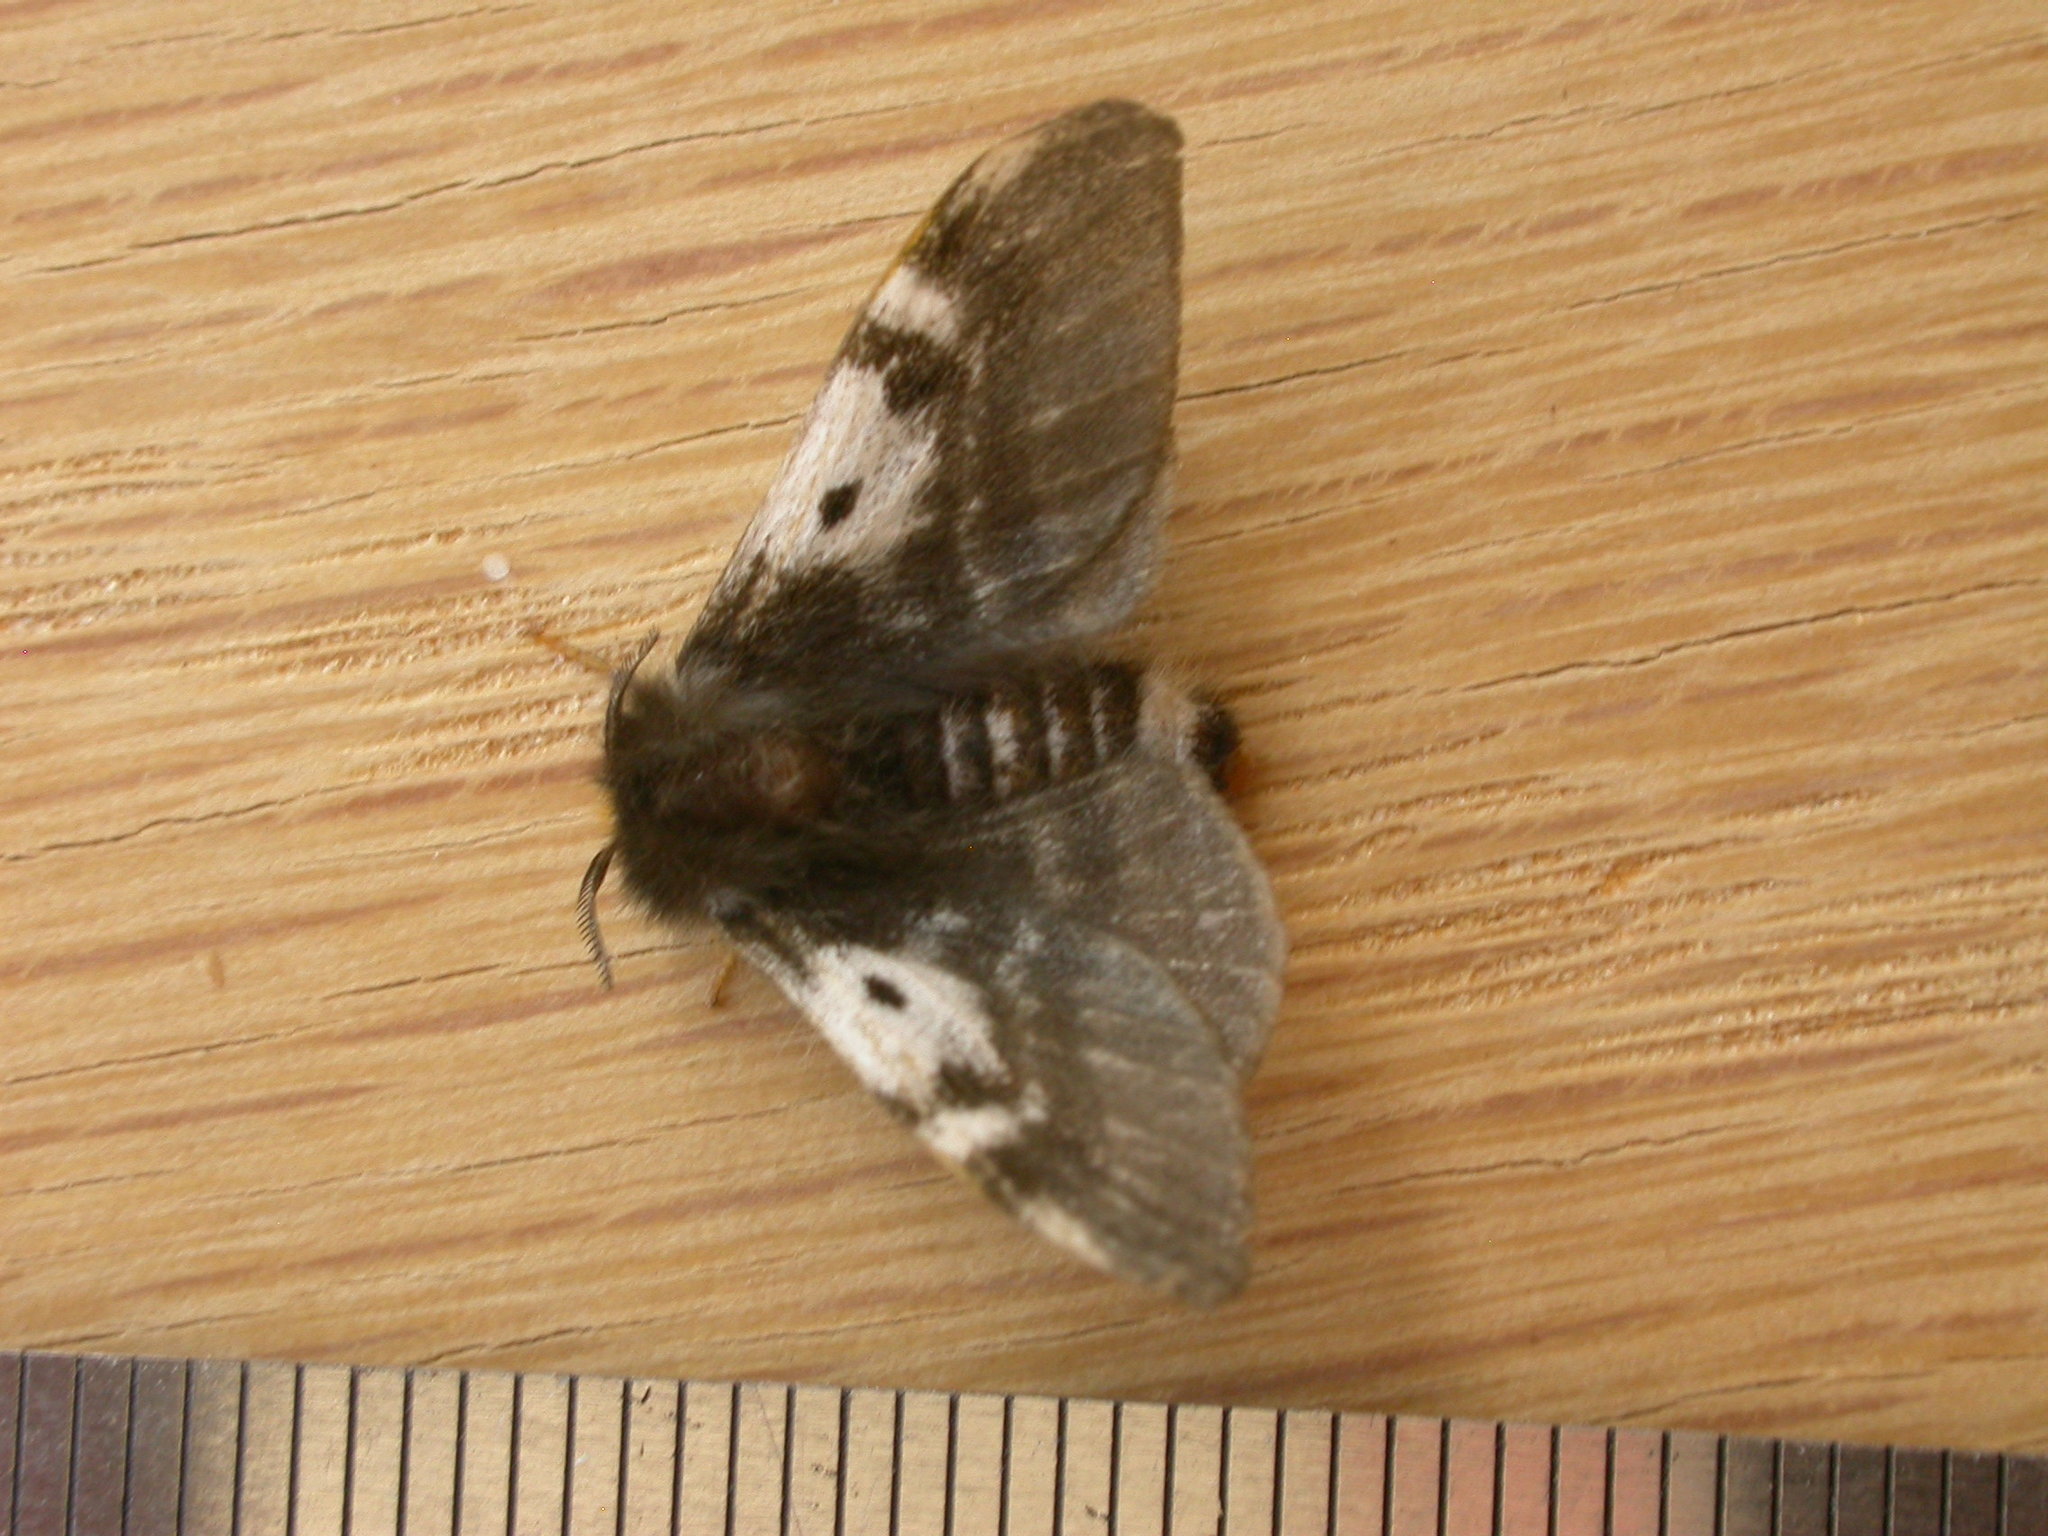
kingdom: Animalia
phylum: Arthropoda
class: Insecta
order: Lepidoptera
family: Anthelidae
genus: Nataxa
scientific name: Nataxa flavescens
